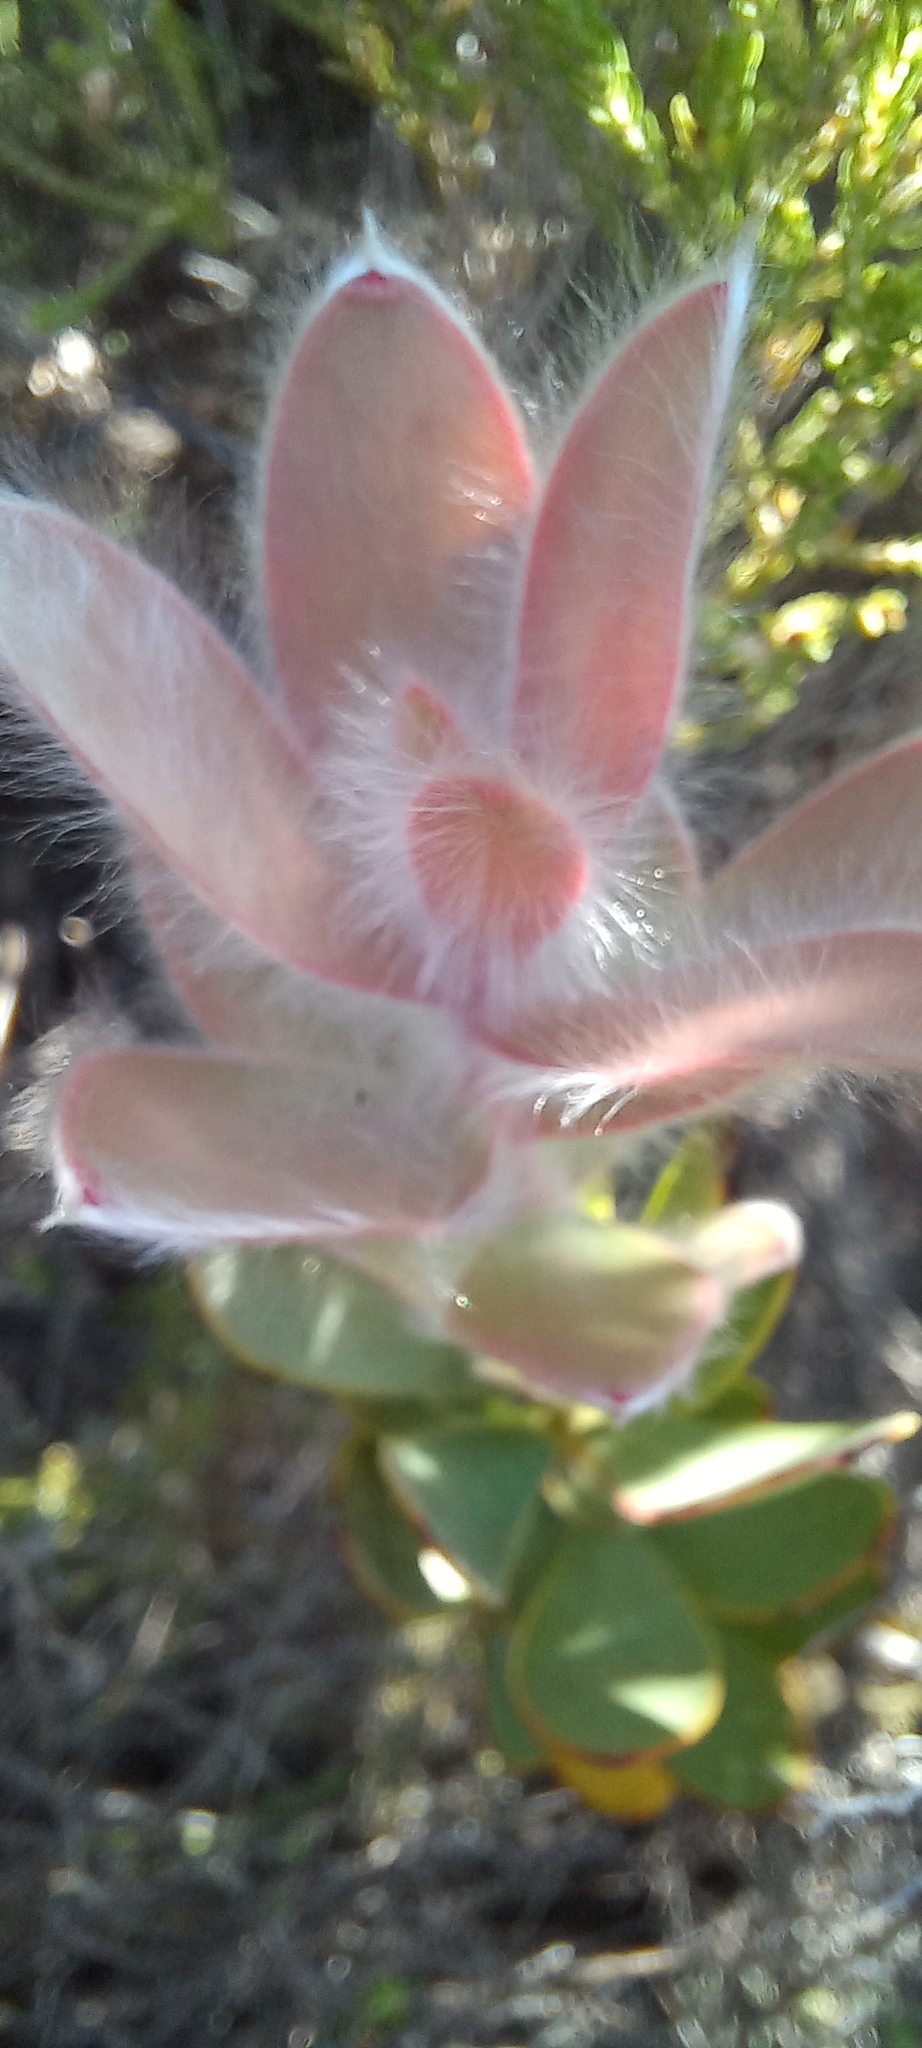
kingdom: Plantae
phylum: Tracheophyta
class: Magnoliopsida
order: Proteales
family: Proteaceae
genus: Leucadendron
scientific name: Leucadendron nervosum
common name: Silky-ruff conebush
